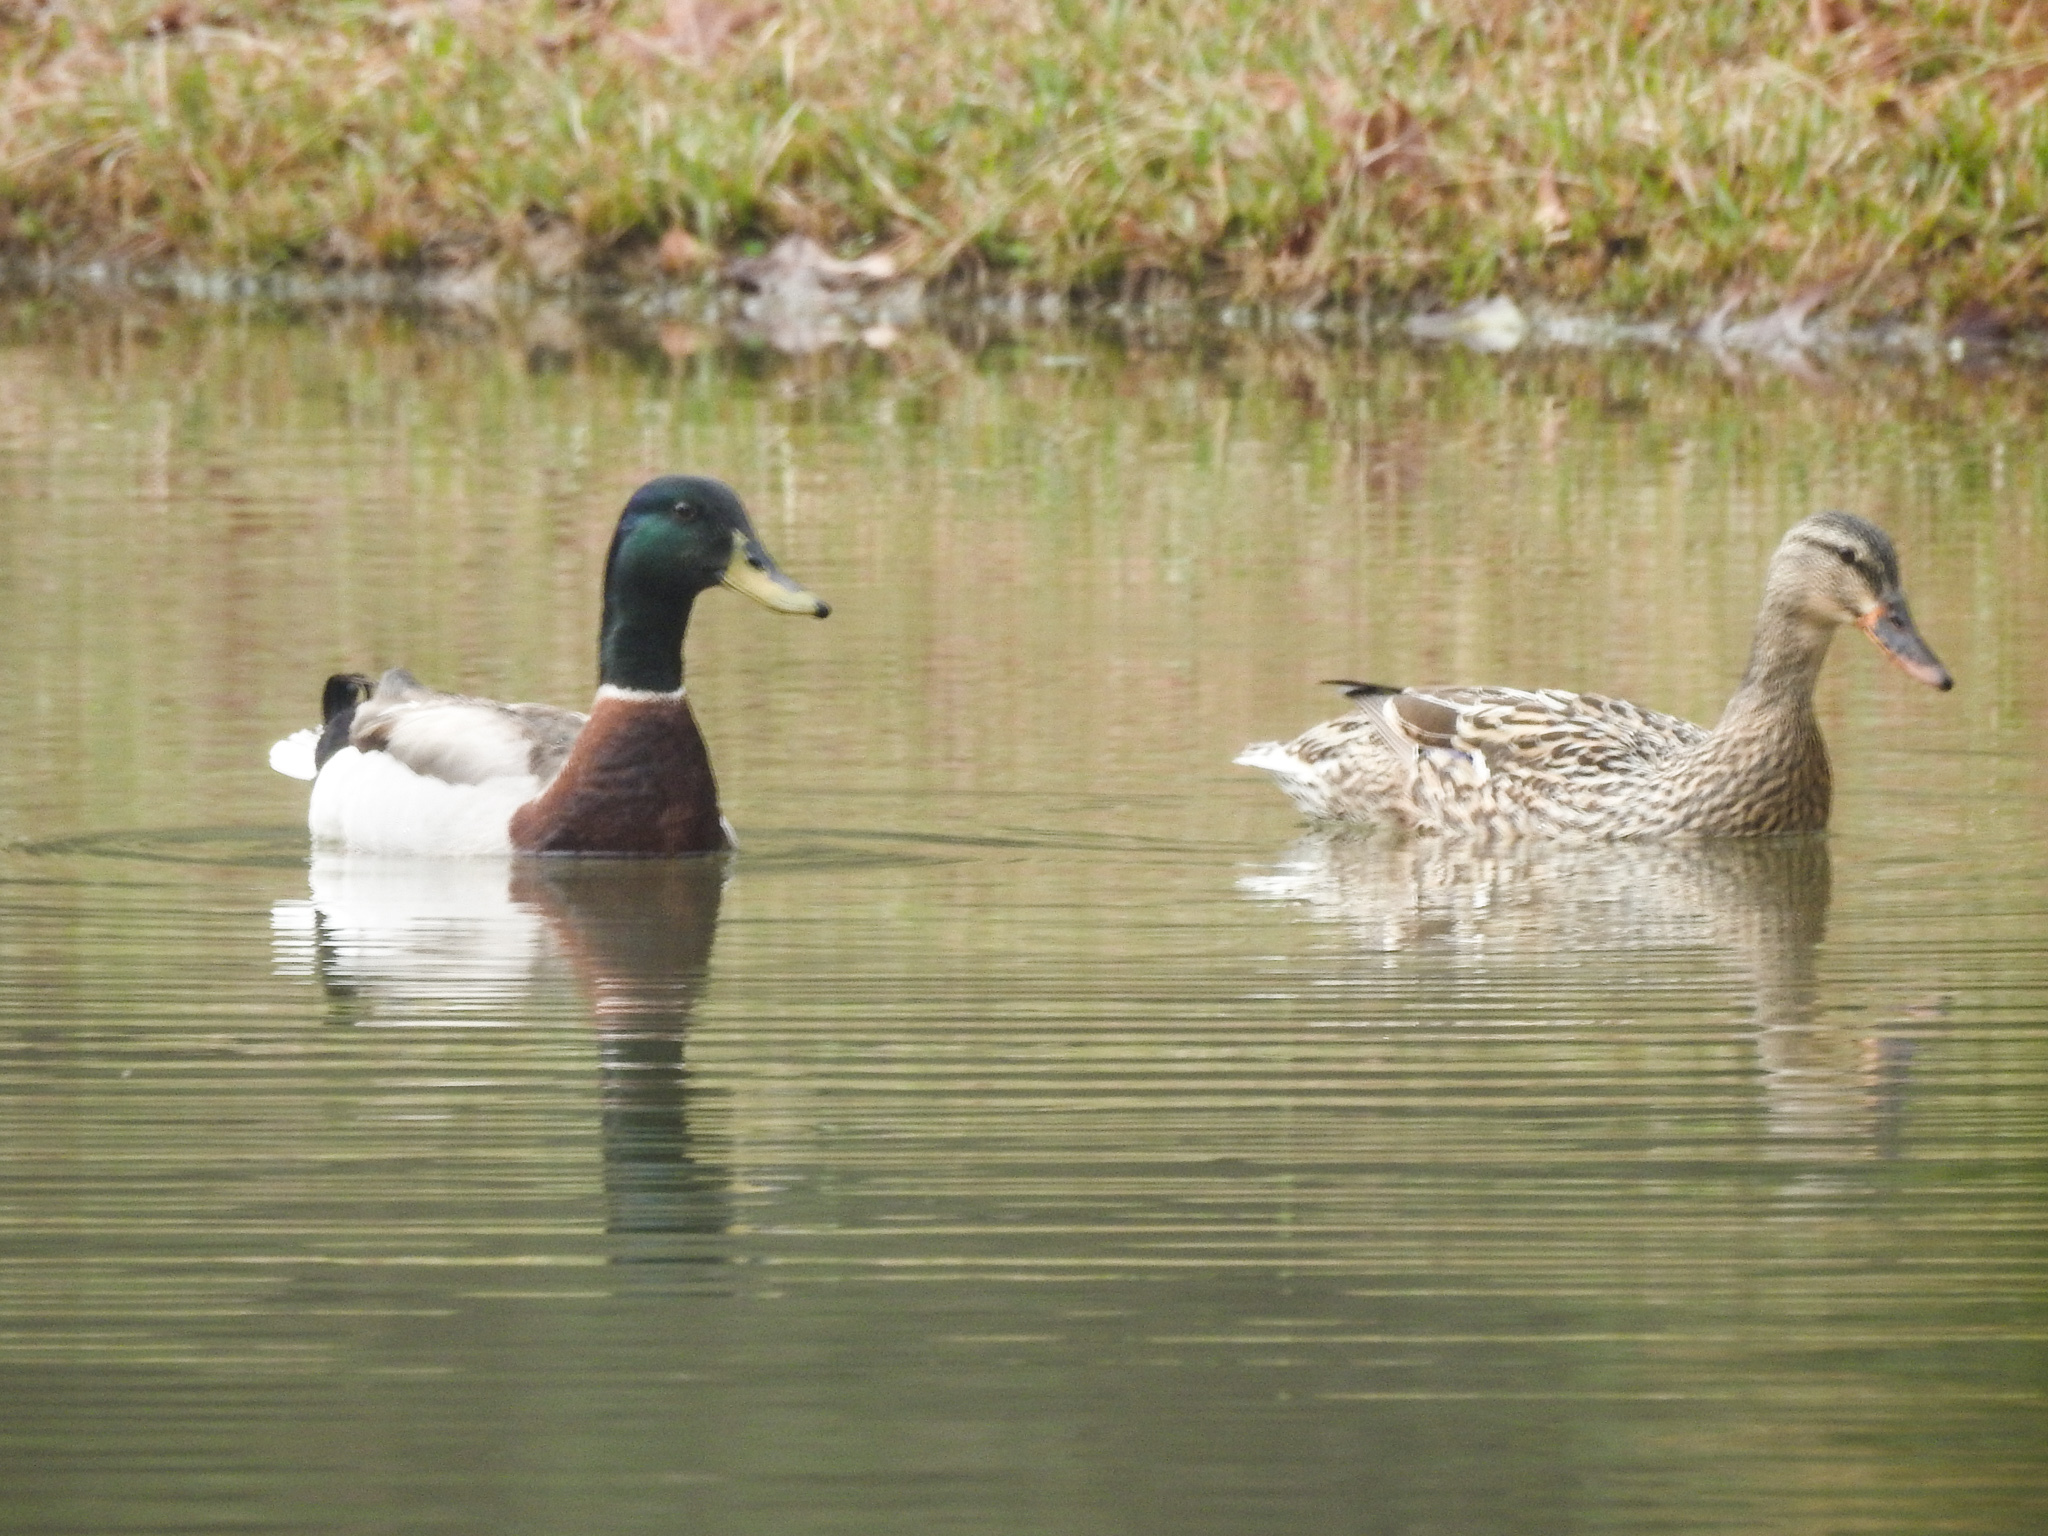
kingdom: Animalia
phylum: Chordata
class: Aves
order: Anseriformes
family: Anatidae
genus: Anas
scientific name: Anas platyrhynchos
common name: Mallard
